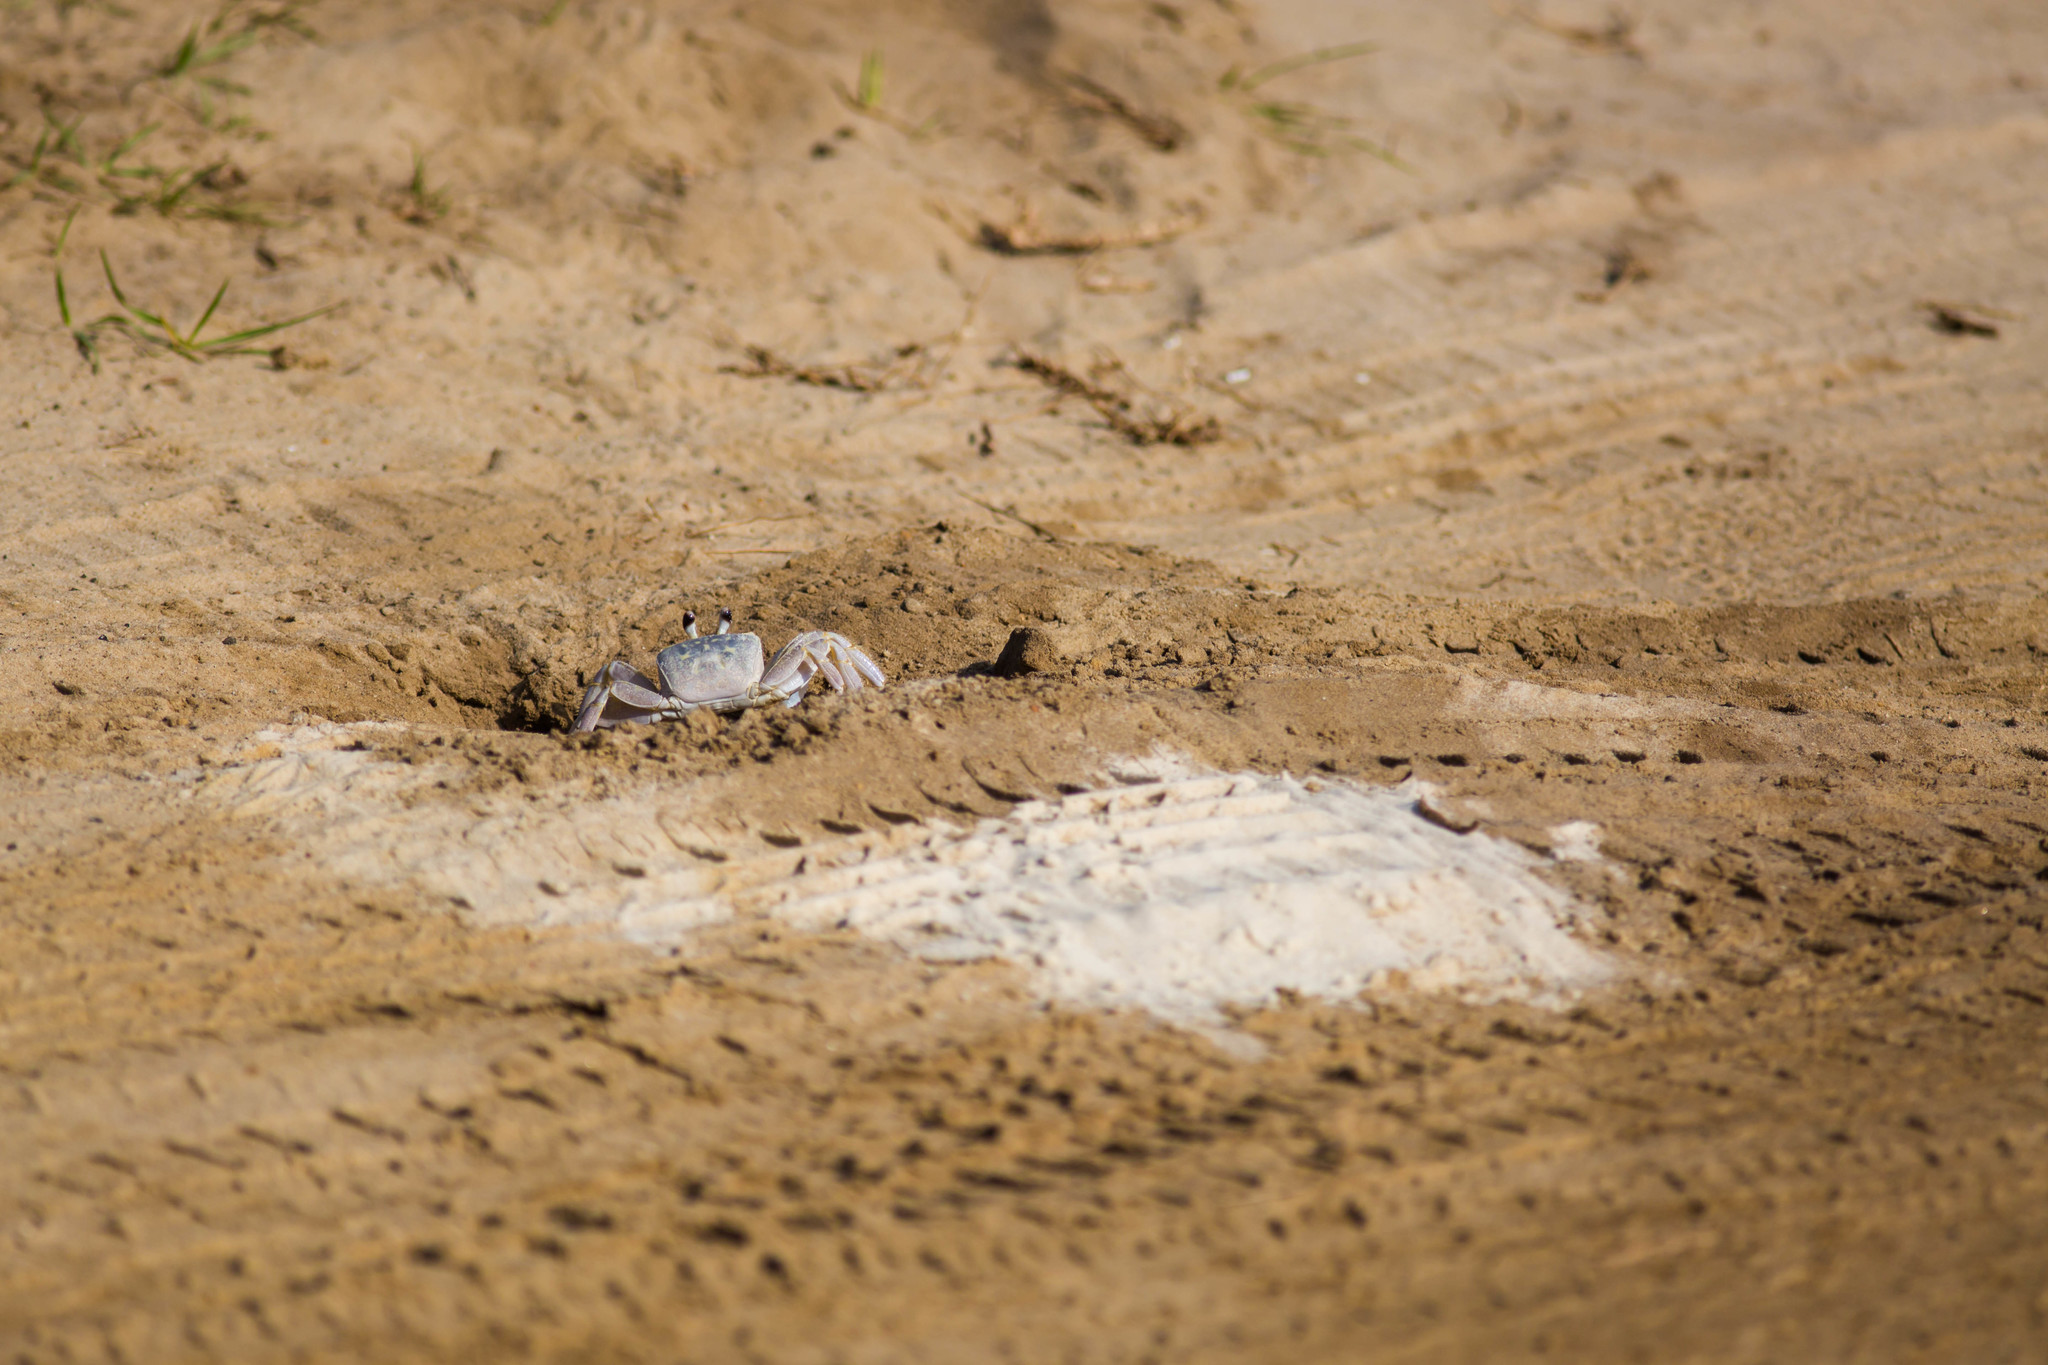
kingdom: Animalia
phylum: Arthropoda
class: Malacostraca
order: Decapoda
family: Ocypodidae
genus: Ocypode
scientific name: Ocypode quadrata
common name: Ghost crab
